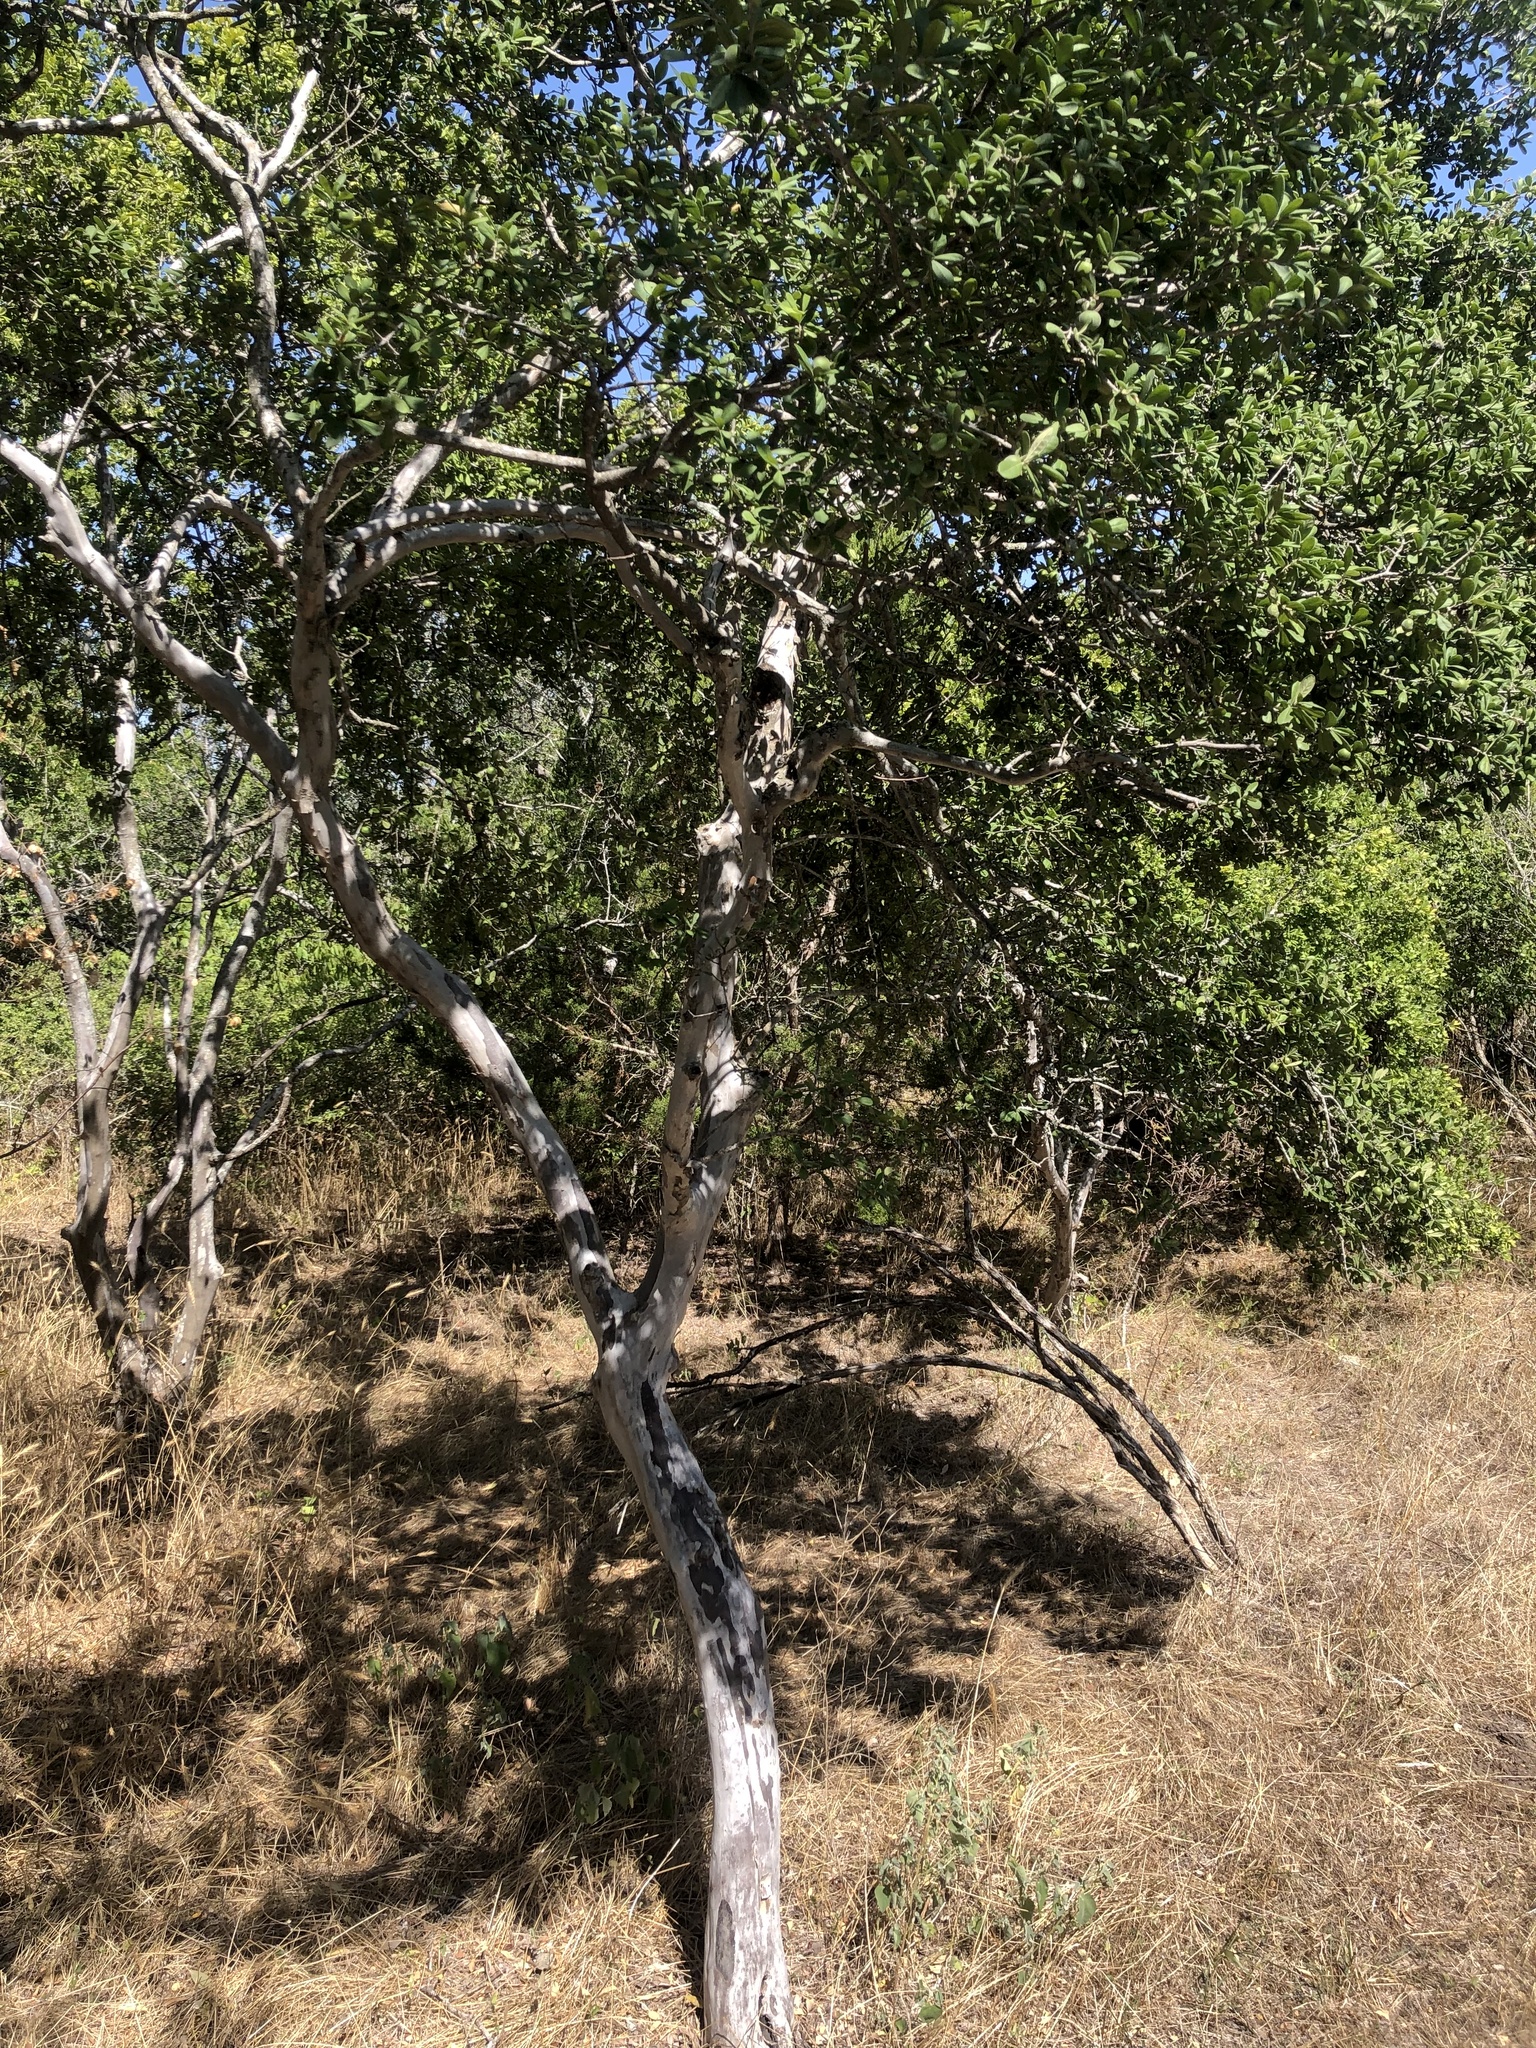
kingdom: Plantae
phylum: Tracheophyta
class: Magnoliopsida
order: Ericales
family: Ebenaceae
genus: Diospyros
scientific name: Diospyros texana
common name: Texas persimmon
